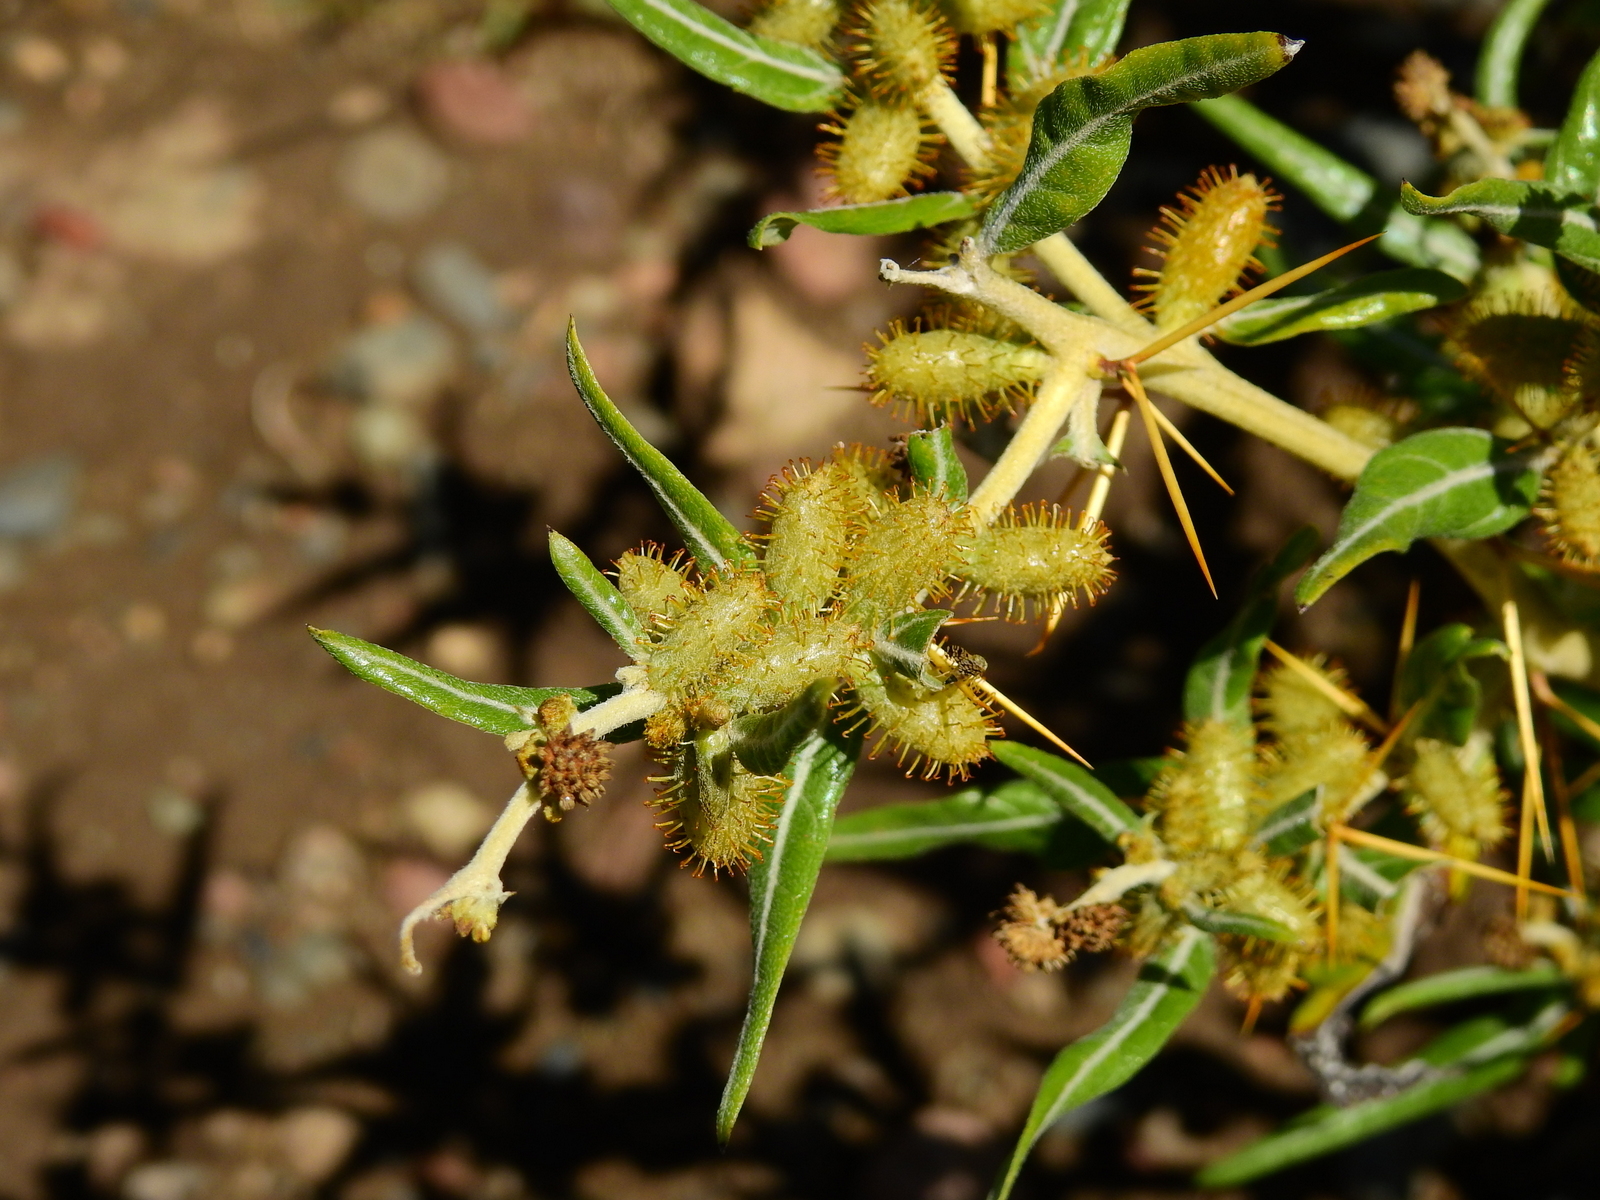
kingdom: Plantae
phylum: Tracheophyta
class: Magnoliopsida
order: Asterales
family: Asteraceae
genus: Xanthium
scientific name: Xanthium spinosum
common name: Spiny cocklebur
